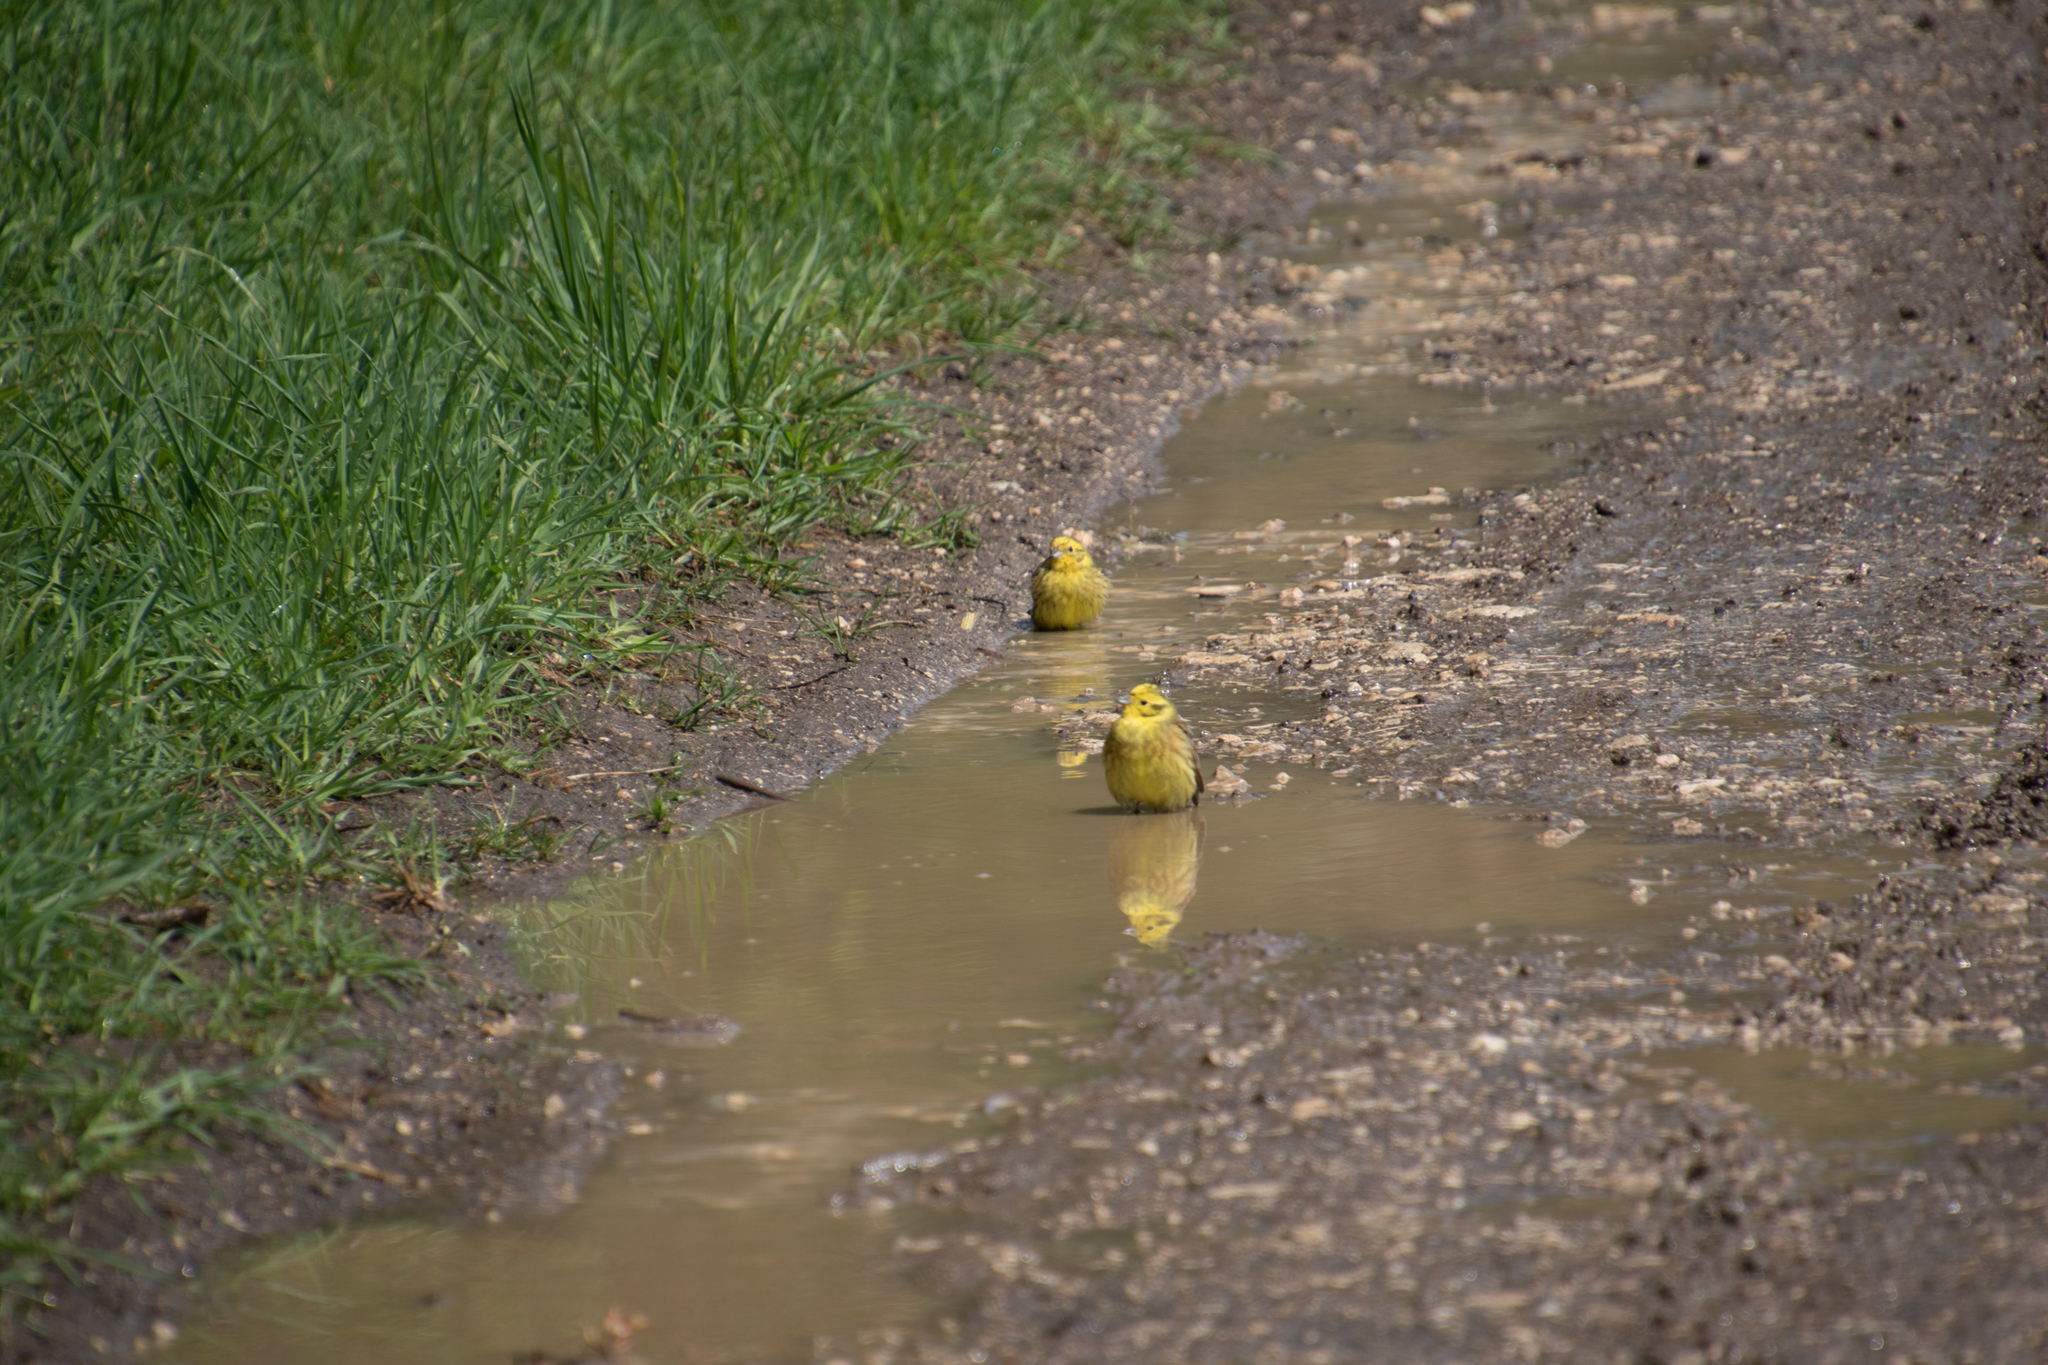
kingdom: Animalia
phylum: Chordata
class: Aves
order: Passeriformes
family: Emberizidae
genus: Emberiza
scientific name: Emberiza citrinella
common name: Yellowhammer
